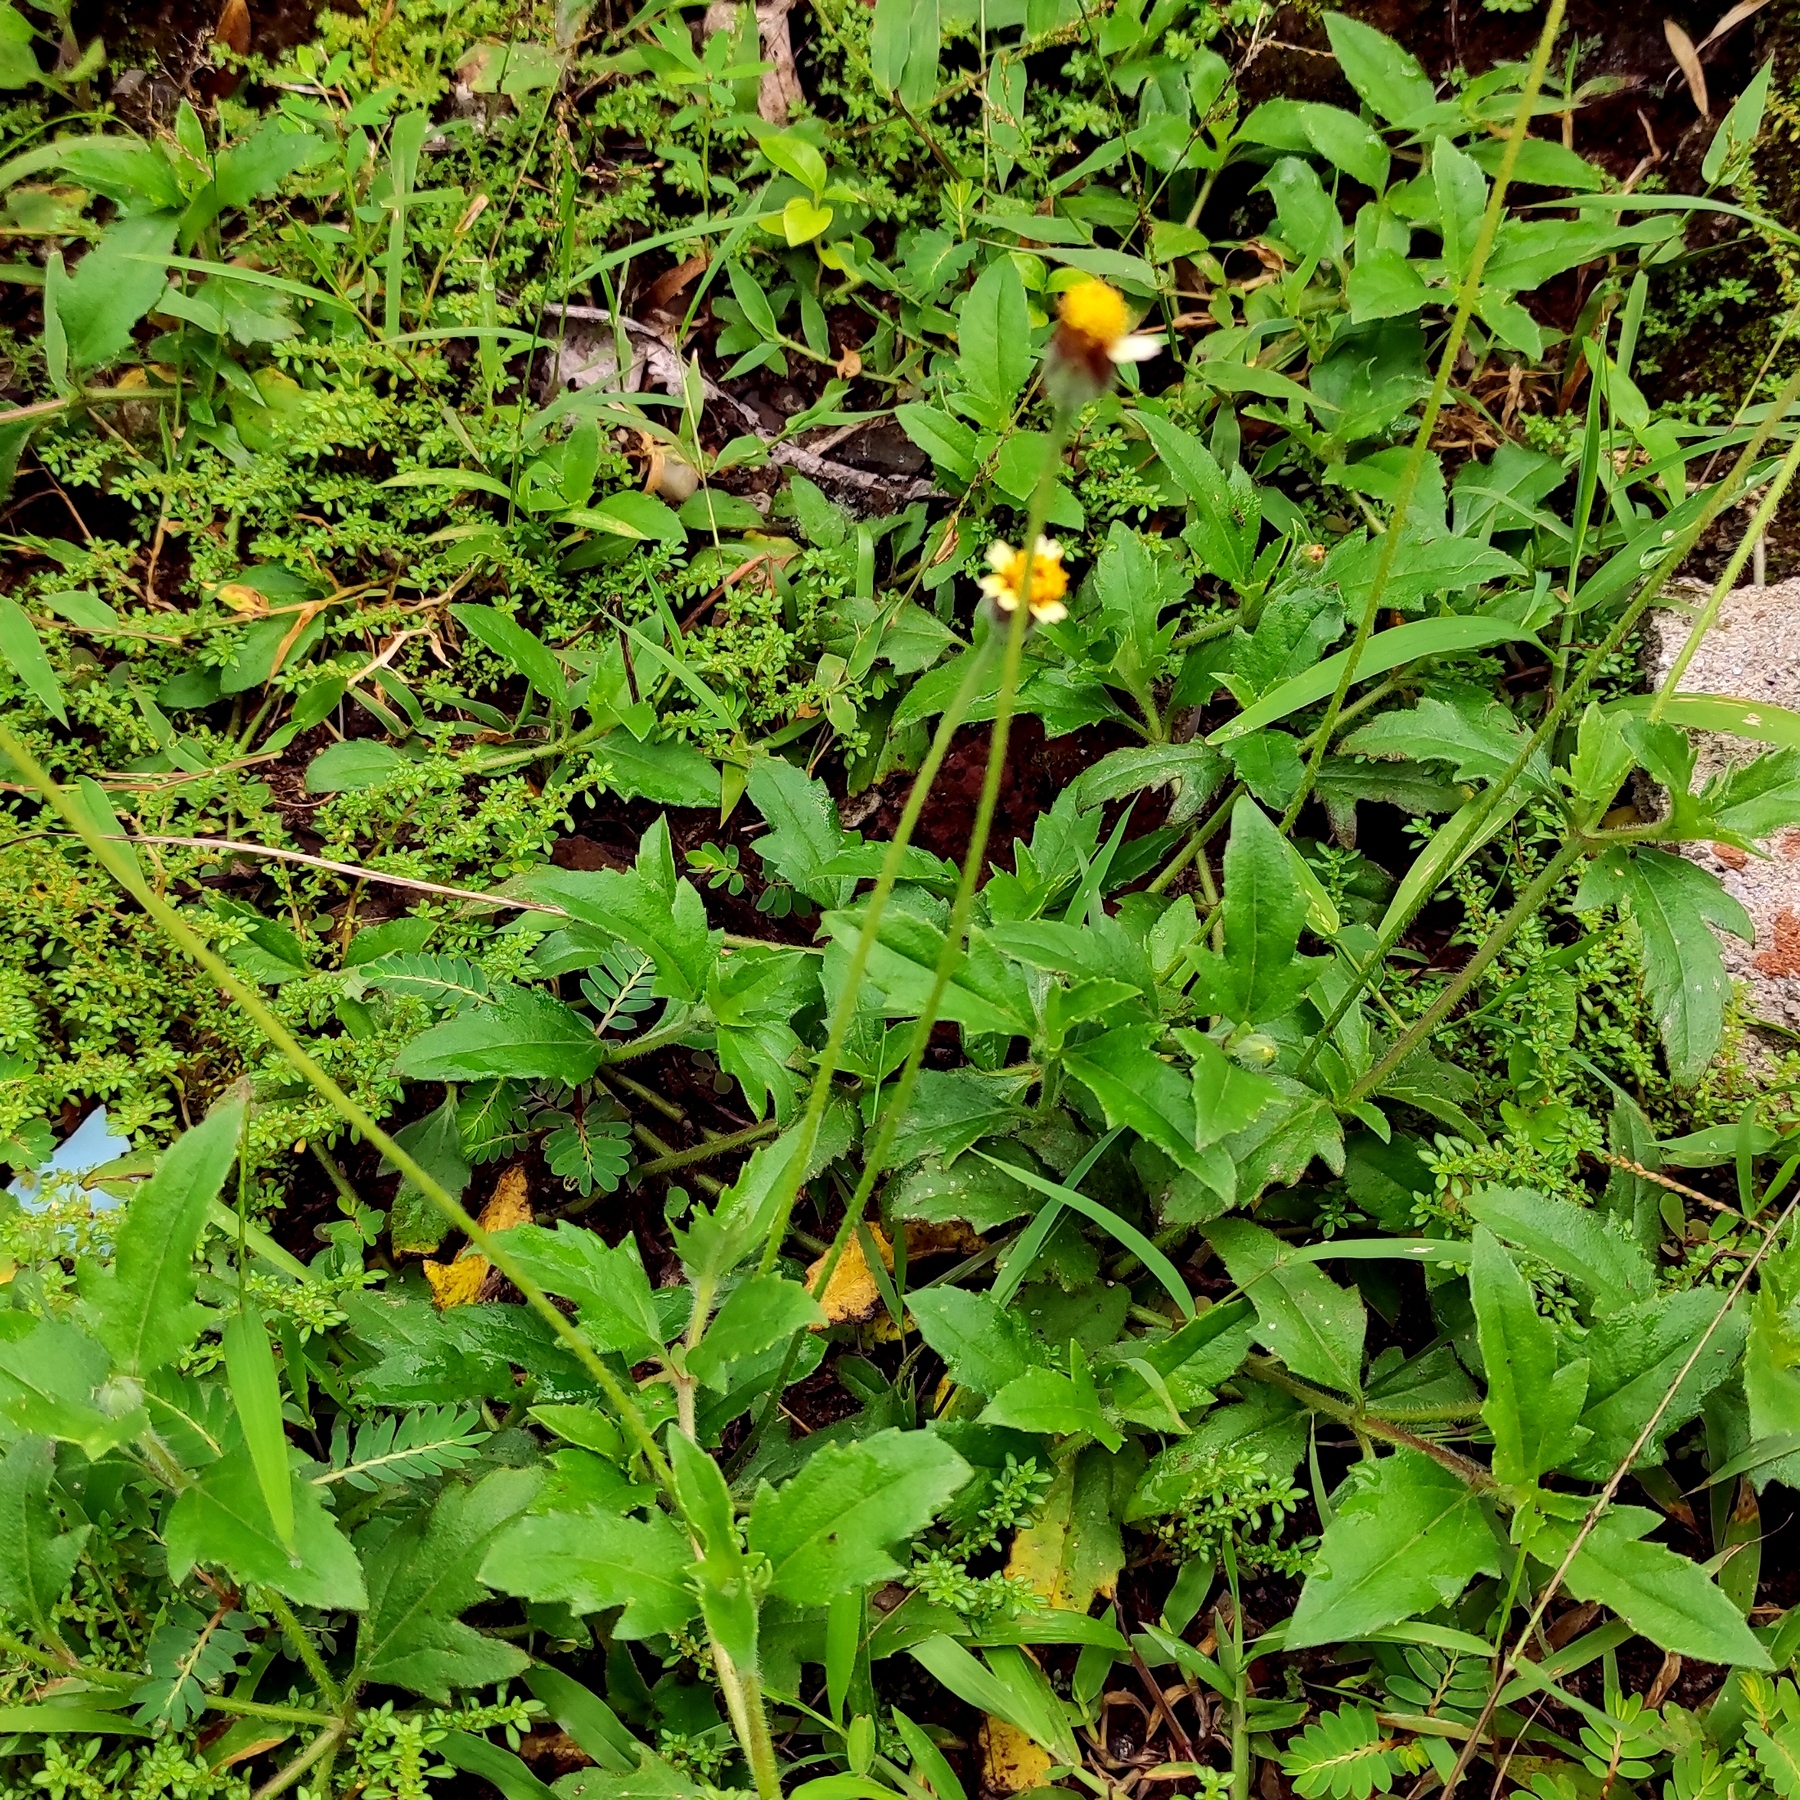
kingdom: Plantae
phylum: Tracheophyta
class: Magnoliopsida
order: Asterales
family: Asteraceae
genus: Tridax
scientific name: Tridax procumbens
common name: Coatbuttons
